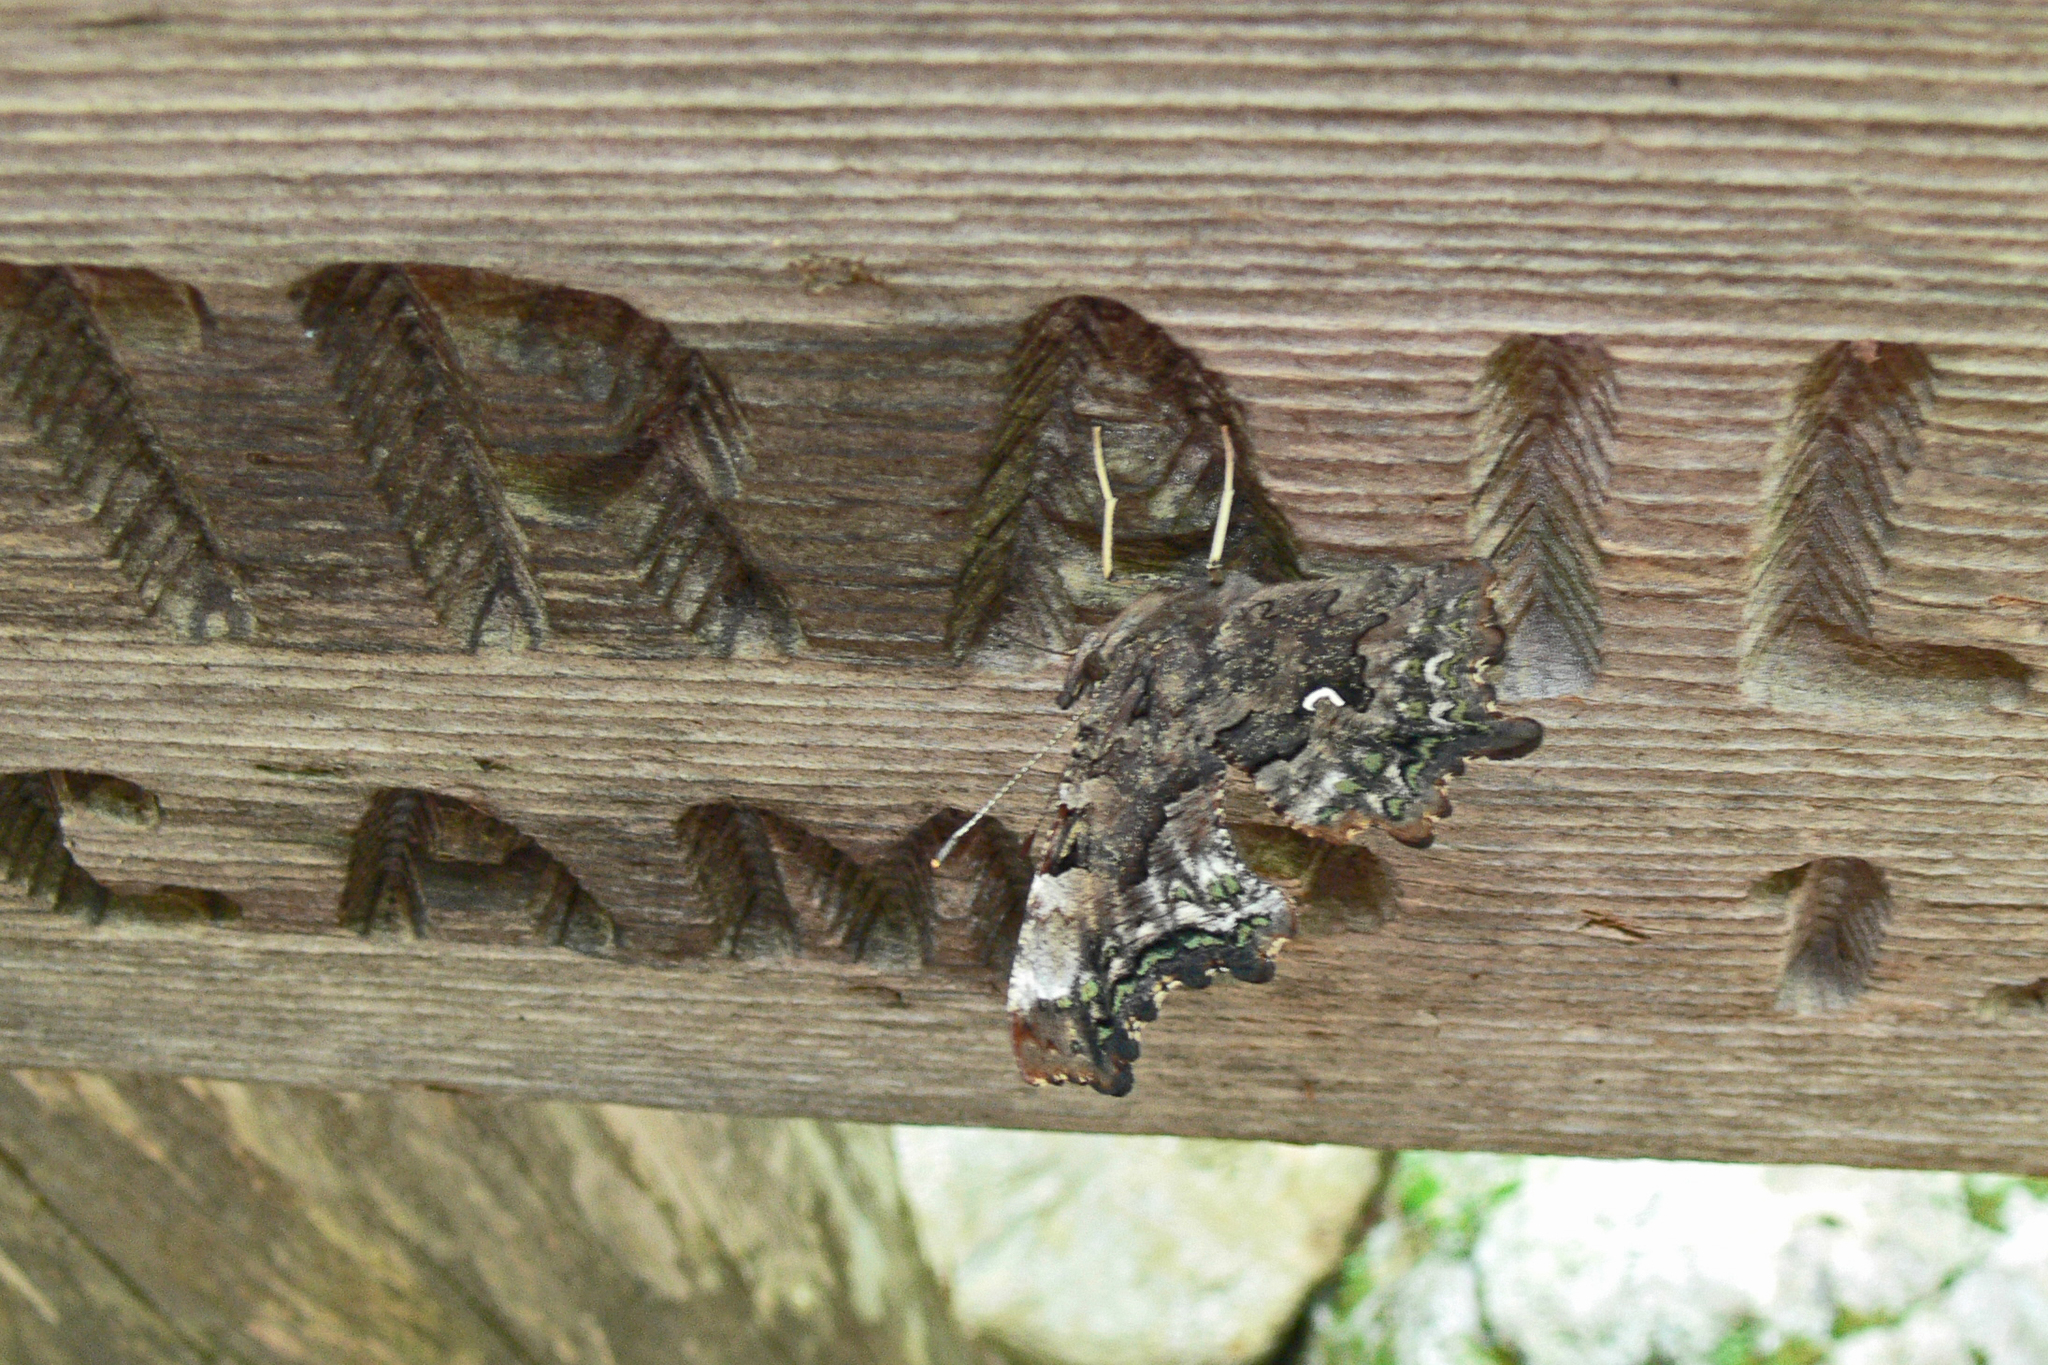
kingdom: Animalia
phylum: Arthropoda
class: Insecta
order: Lepidoptera
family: Nymphalidae
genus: Polygonia
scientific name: Polygonia faunus
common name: Green comma
